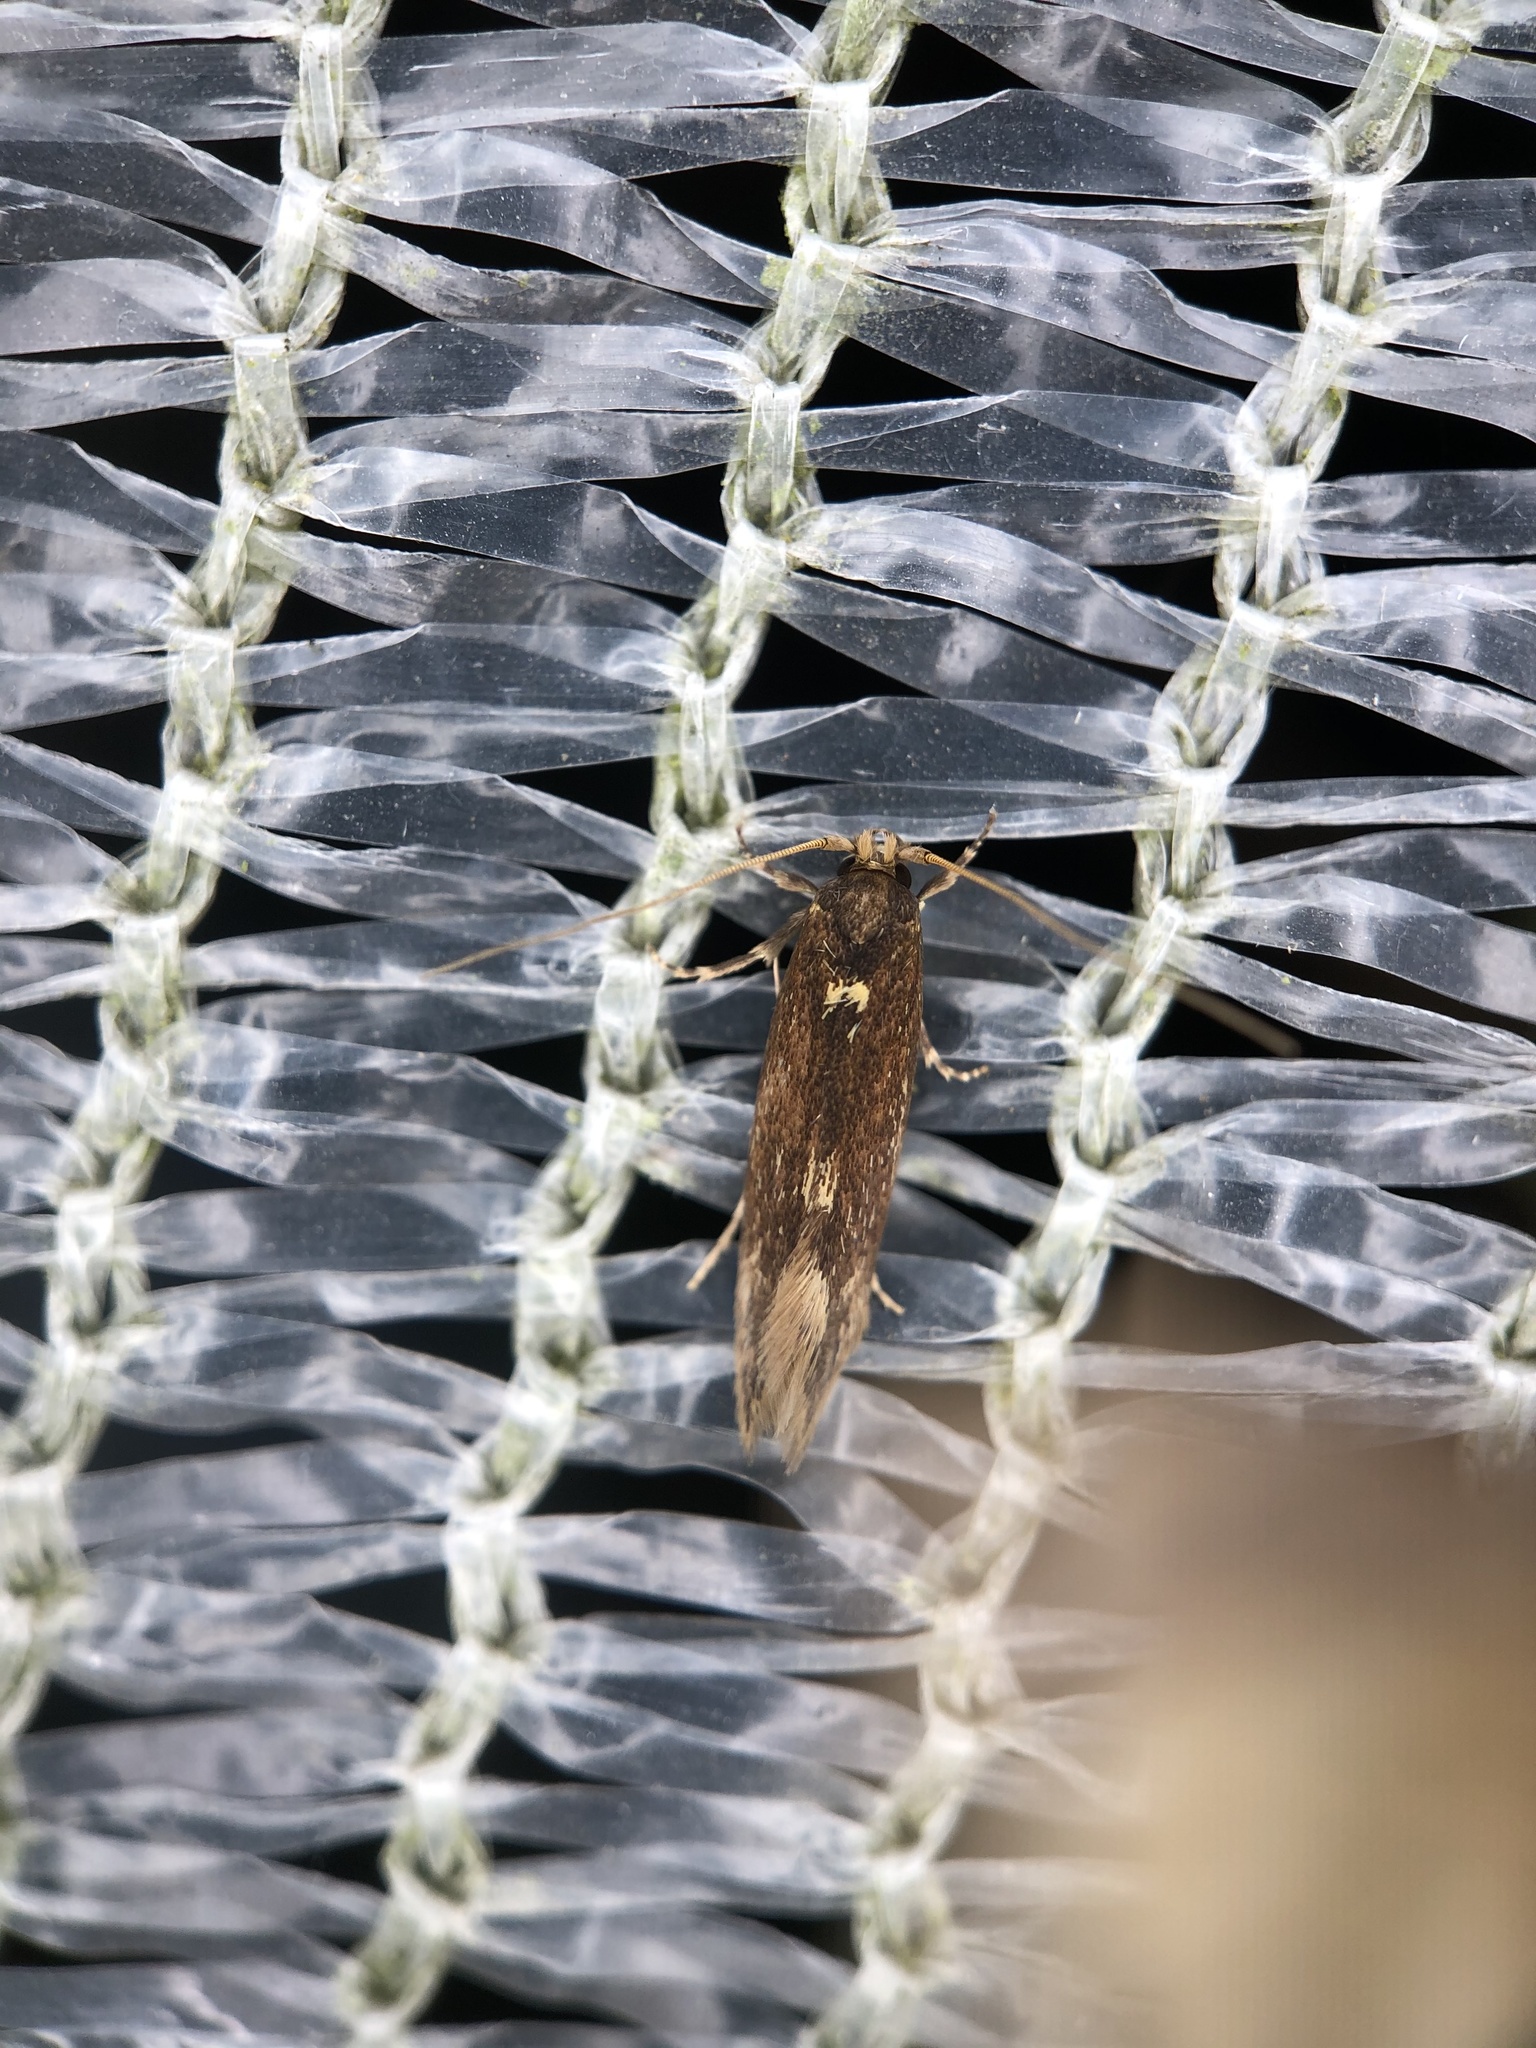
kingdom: Animalia
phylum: Arthropoda
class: Insecta
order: Lepidoptera
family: Tineidae
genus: Opogona
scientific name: Opogona omoscopa
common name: Moth
